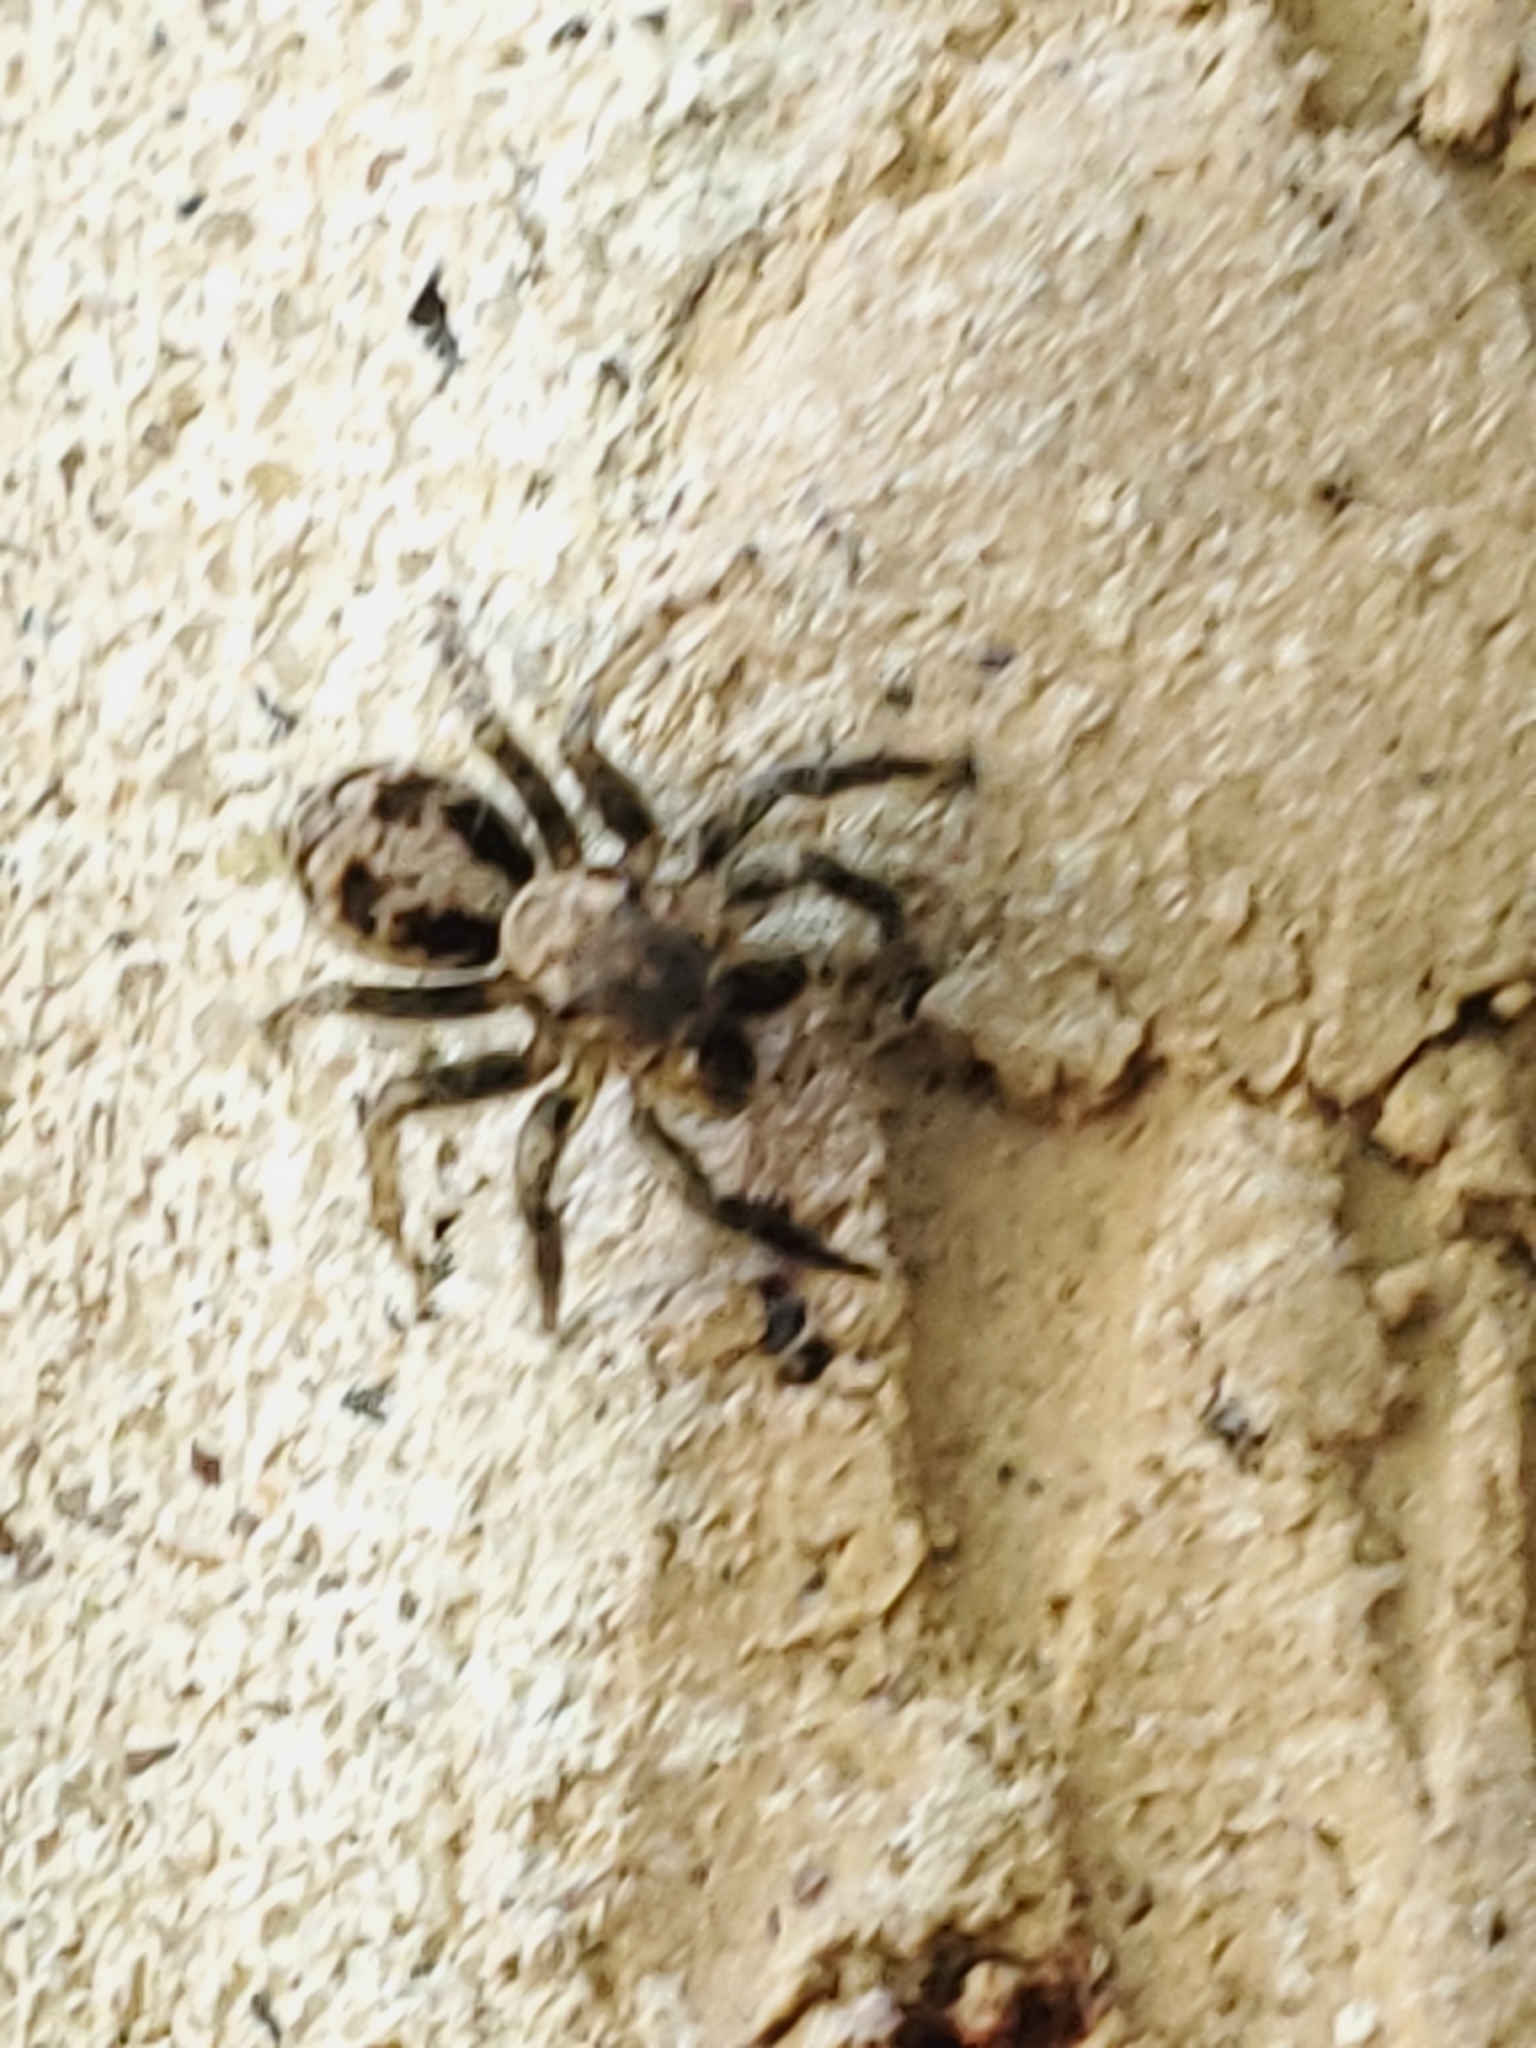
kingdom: Animalia
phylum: Arthropoda
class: Arachnida
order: Araneae
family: Salticidae
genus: Naphrys
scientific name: Naphrys pulex
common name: Flea jumping spider
